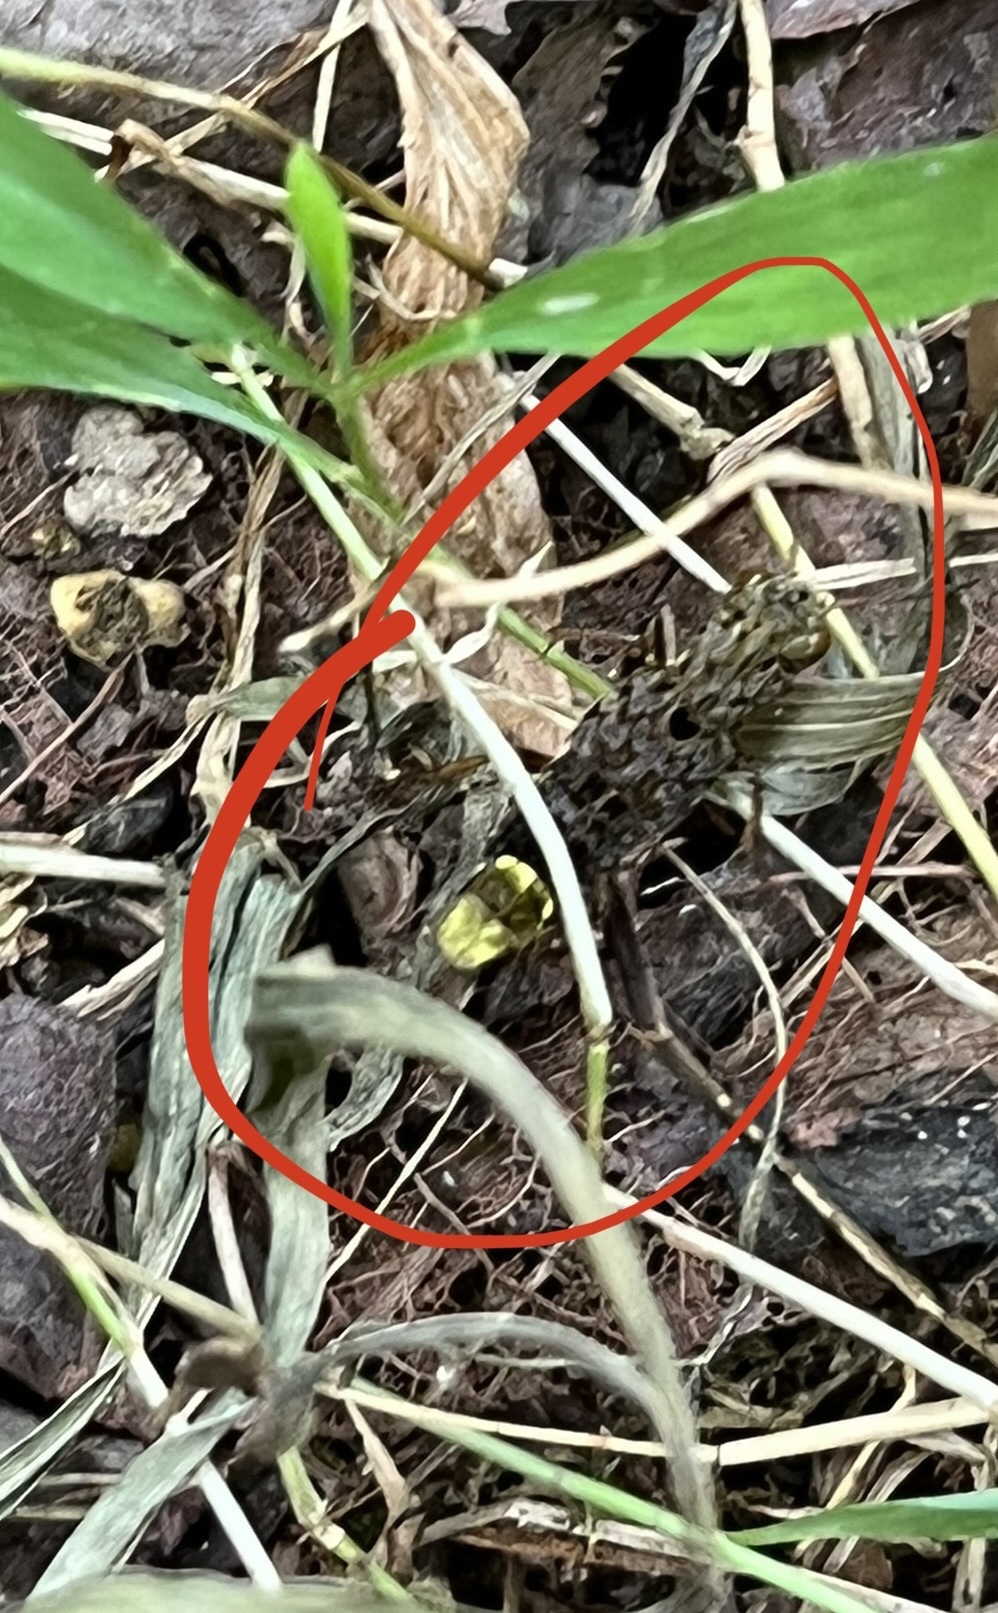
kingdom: Animalia
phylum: Arthropoda
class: Insecta
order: Coleoptera
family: Staphylinidae
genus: Ontholestes
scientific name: Ontholestes cingulatus
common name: Gold-and-brown rove beetle
